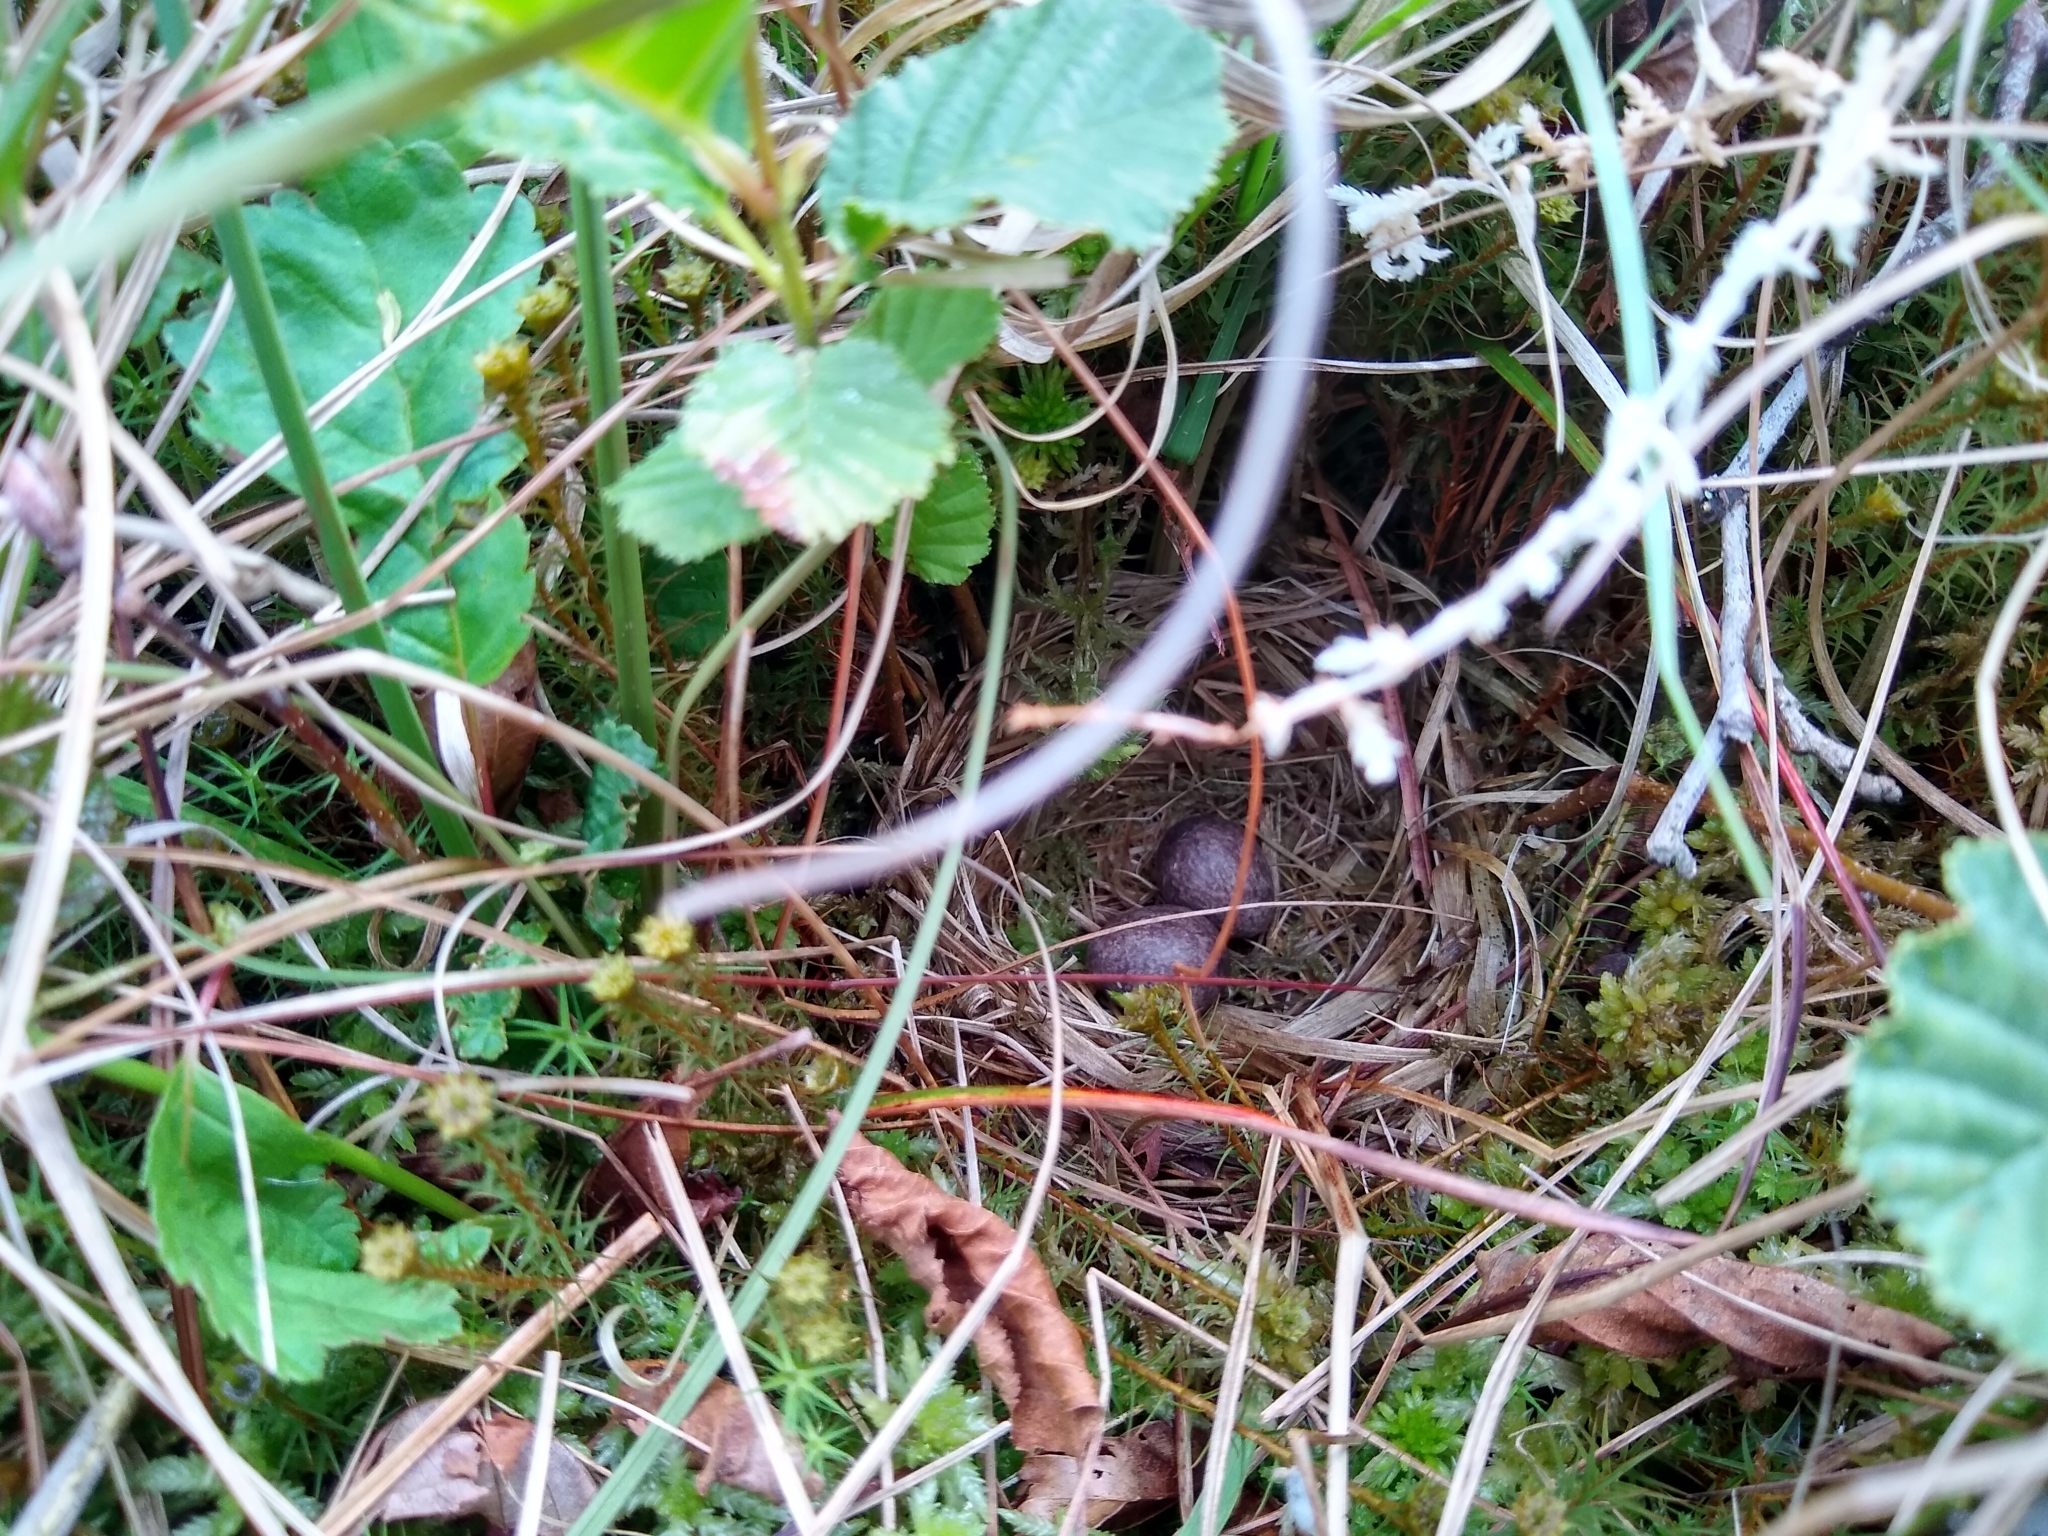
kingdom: Animalia
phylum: Chordata
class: Aves
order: Passeriformes
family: Emberizidae
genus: Emberiza
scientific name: Emberiza schoeniclus
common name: Reed bunting
